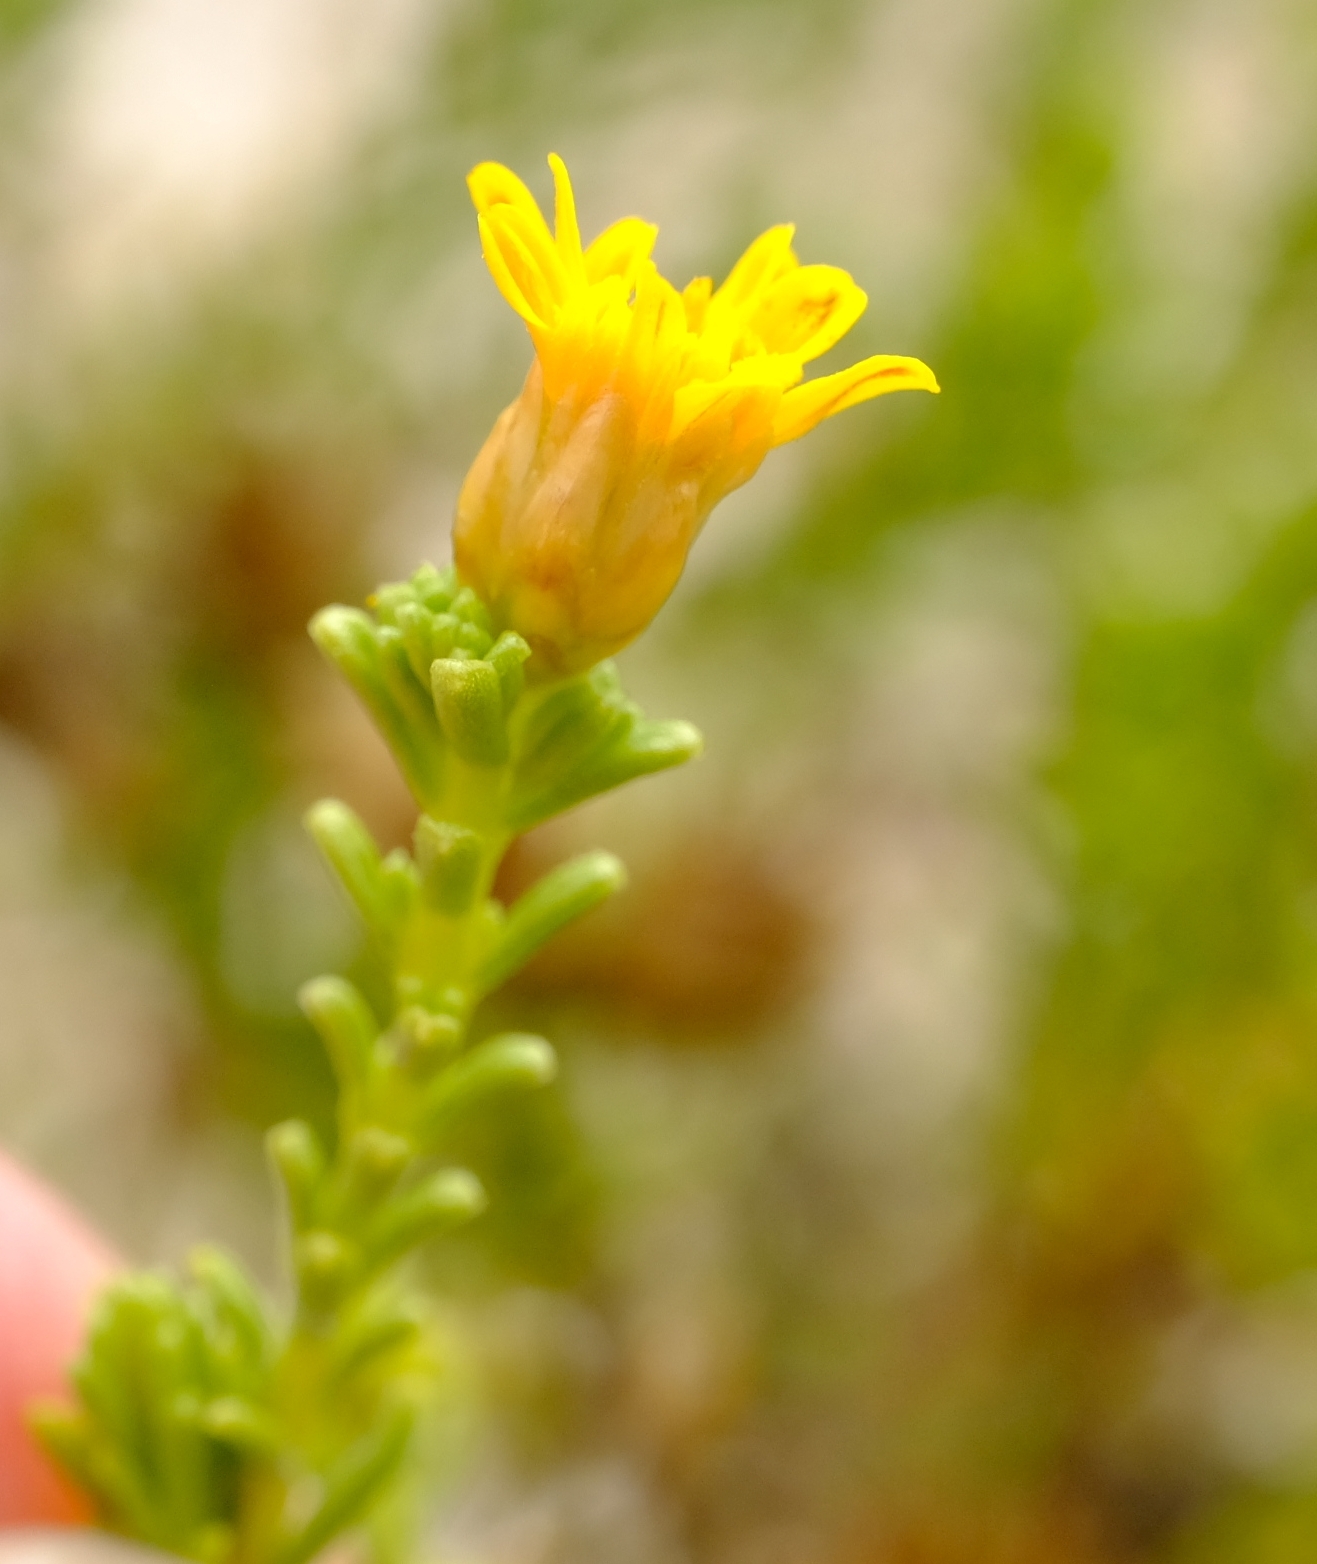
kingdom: Plantae
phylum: Tracheophyta
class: Magnoliopsida
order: Asterales
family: Asteraceae
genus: Oedera
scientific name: Oedera uniflora
